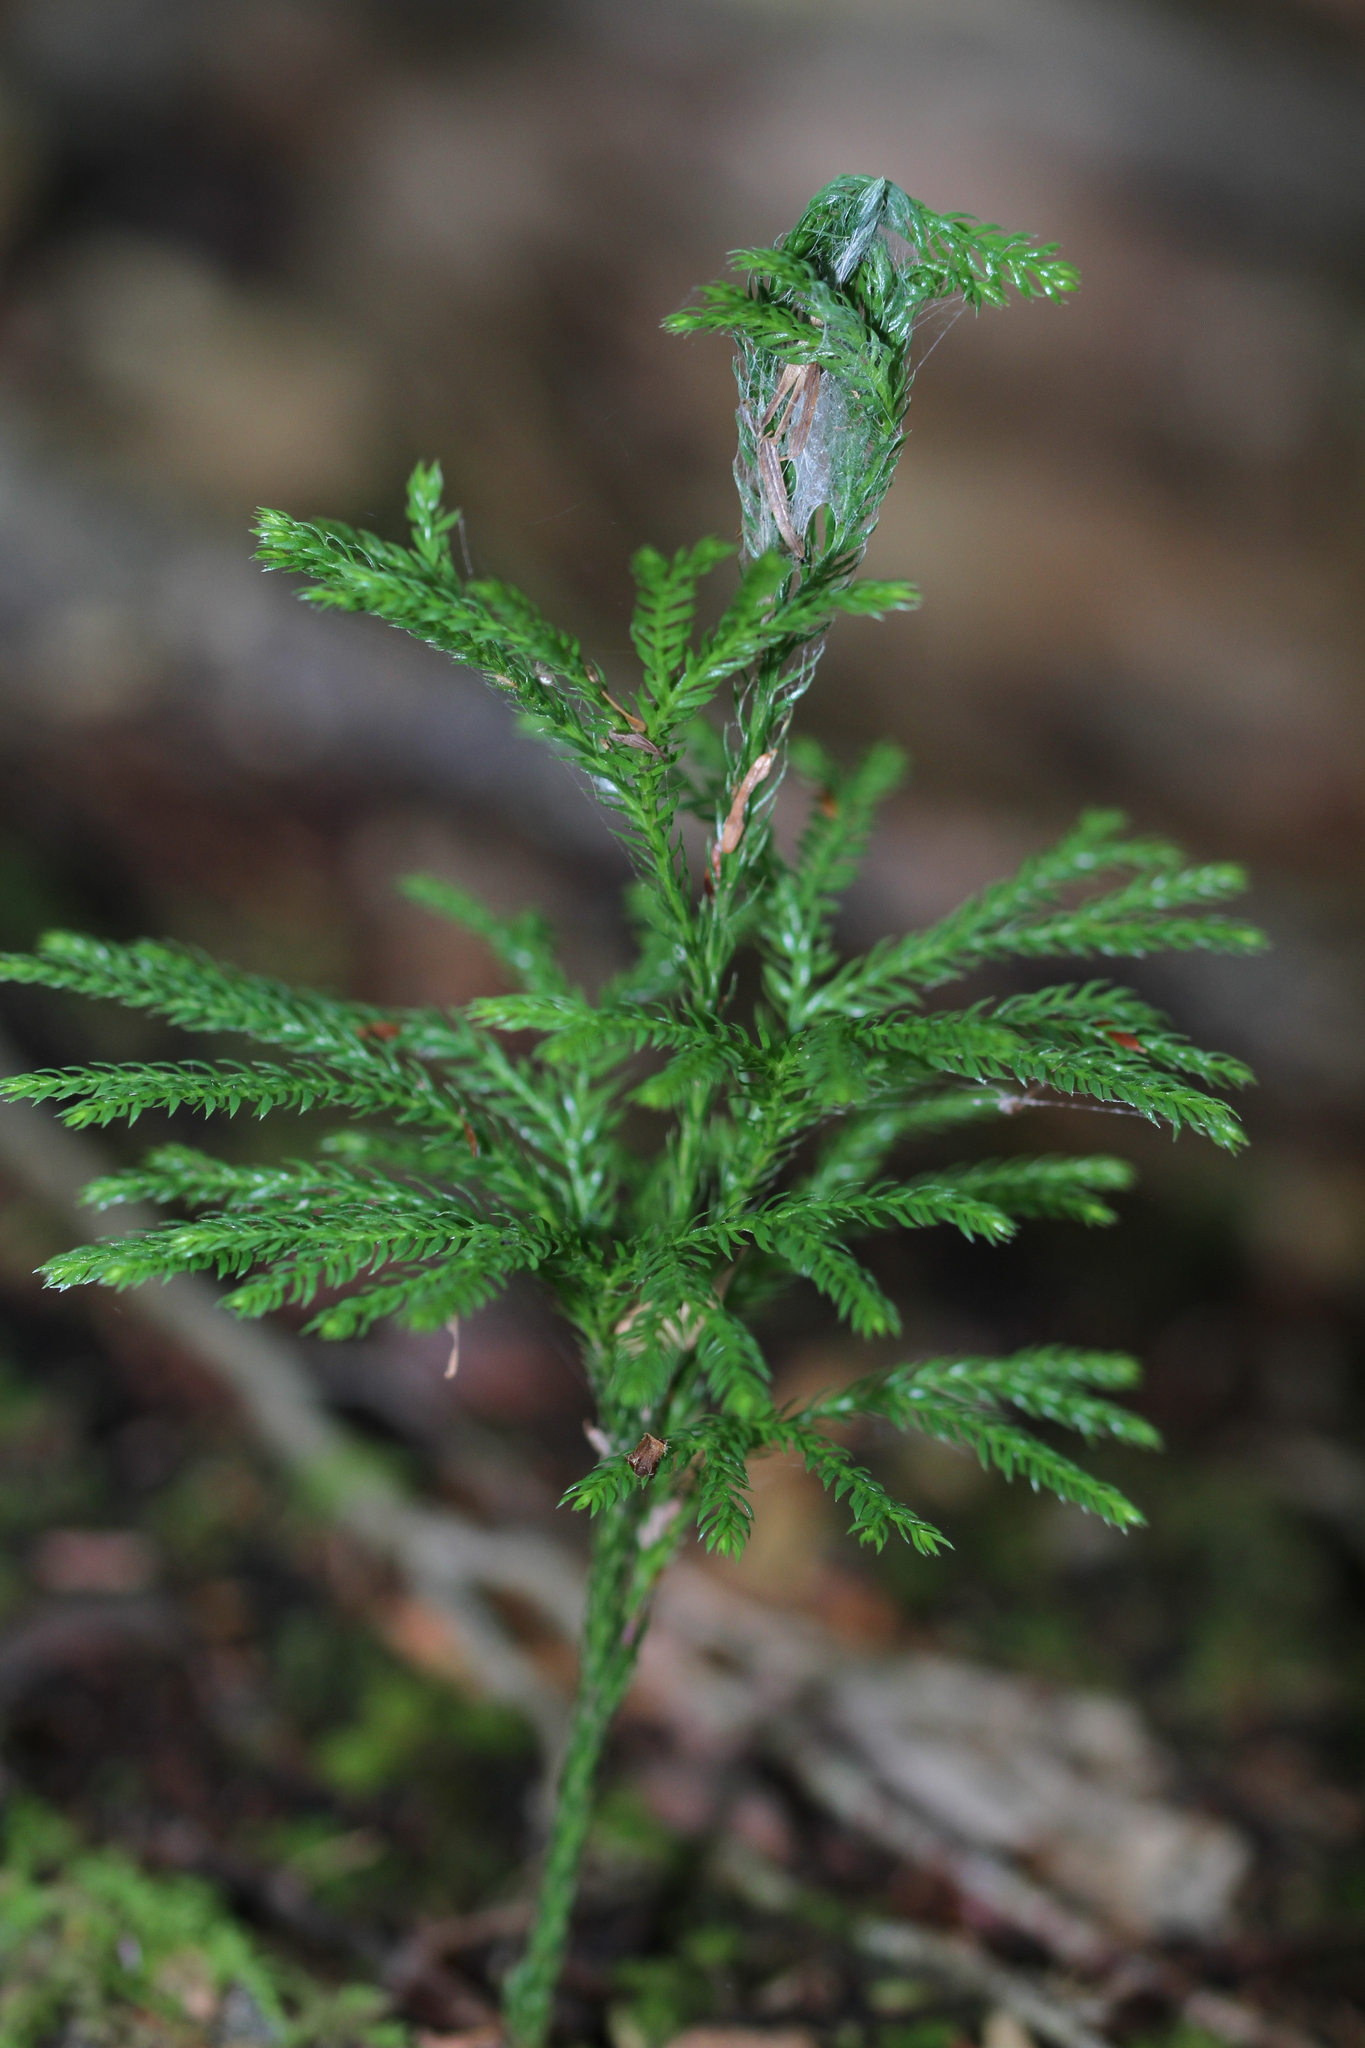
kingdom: Plantae
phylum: Tracheophyta
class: Lycopodiopsida
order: Lycopodiales
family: Lycopodiaceae
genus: Dendrolycopodium
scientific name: Dendrolycopodium obscurum
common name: Common ground-pine
